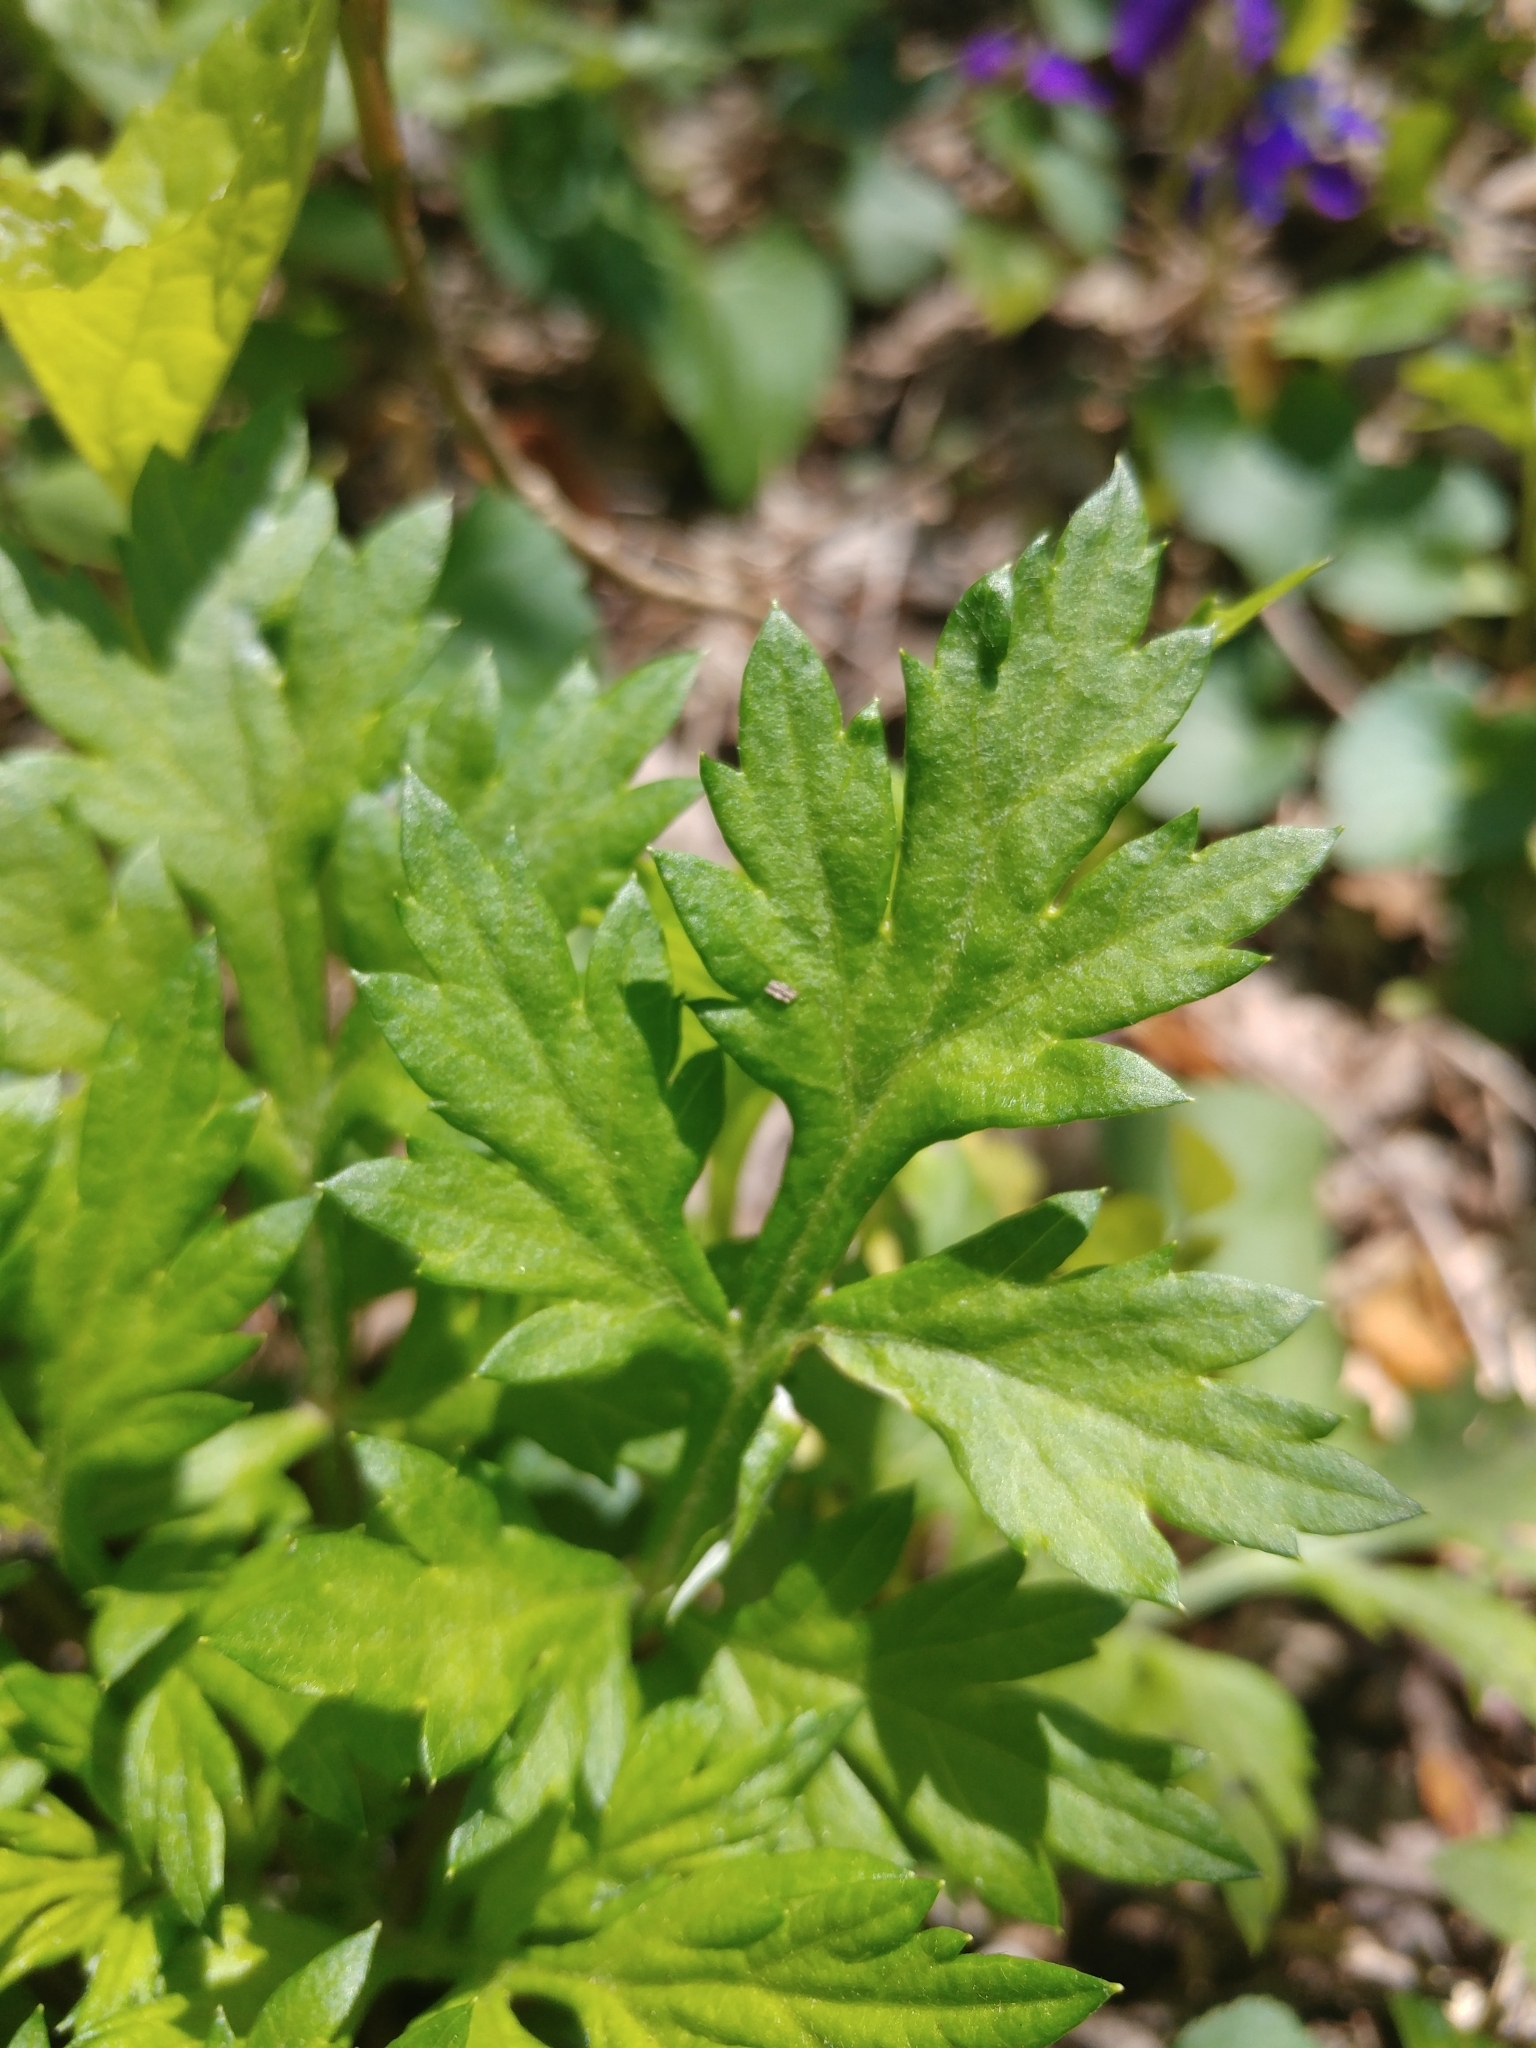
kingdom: Plantae
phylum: Tracheophyta
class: Magnoliopsida
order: Asterales
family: Asteraceae
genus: Artemisia
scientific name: Artemisia vulgaris
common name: Mugwort
